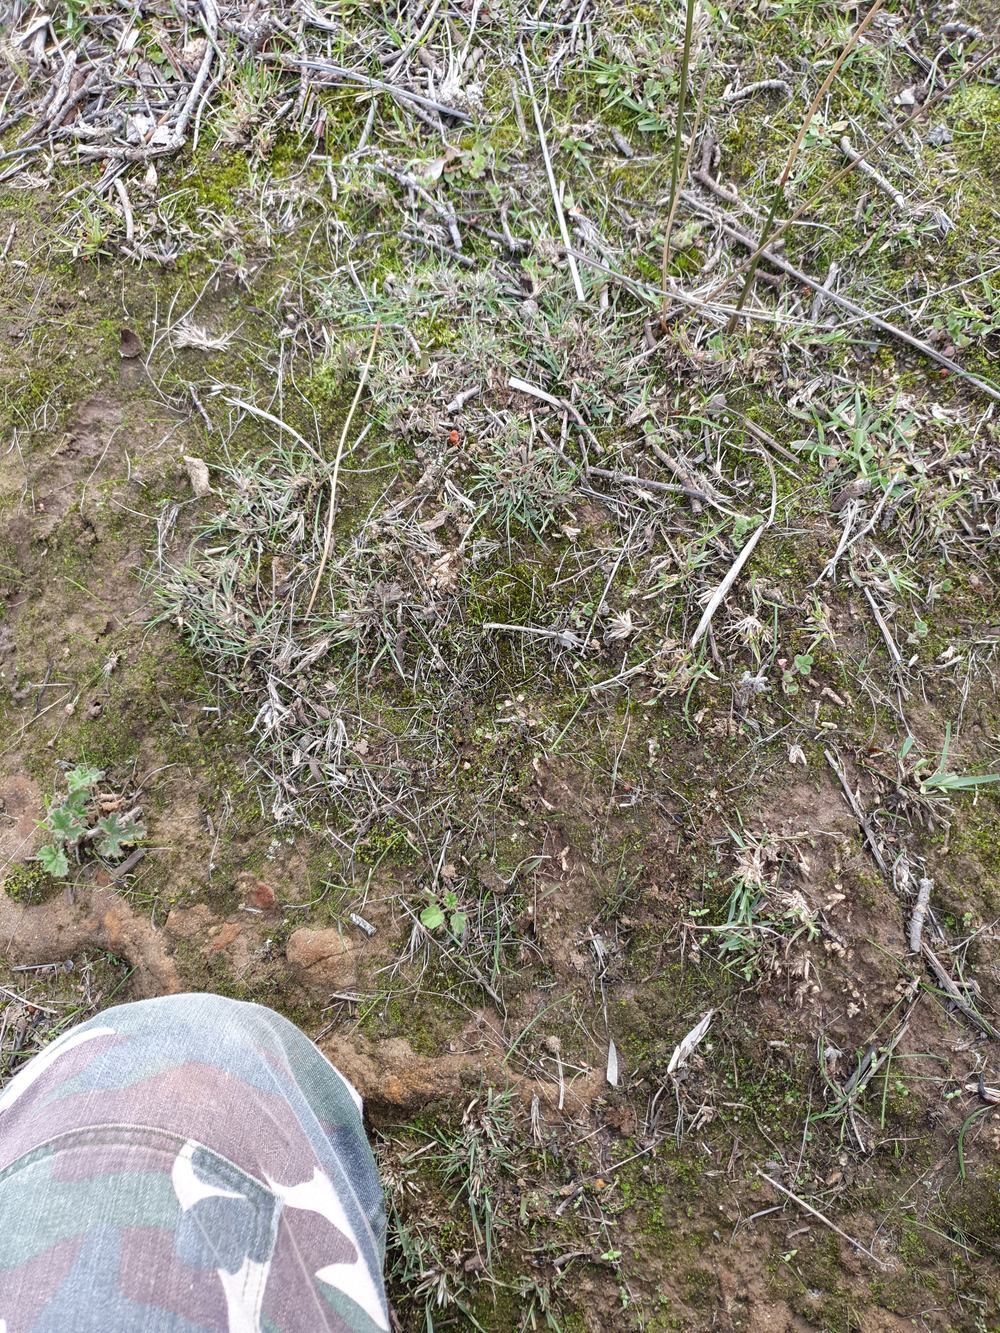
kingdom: Plantae
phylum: Marchantiophyta
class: Marchantiopsida
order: Lunulariales
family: Lunulariaceae
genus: Lunularia
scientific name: Lunularia cruciata
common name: Crescent-cup liverwort
